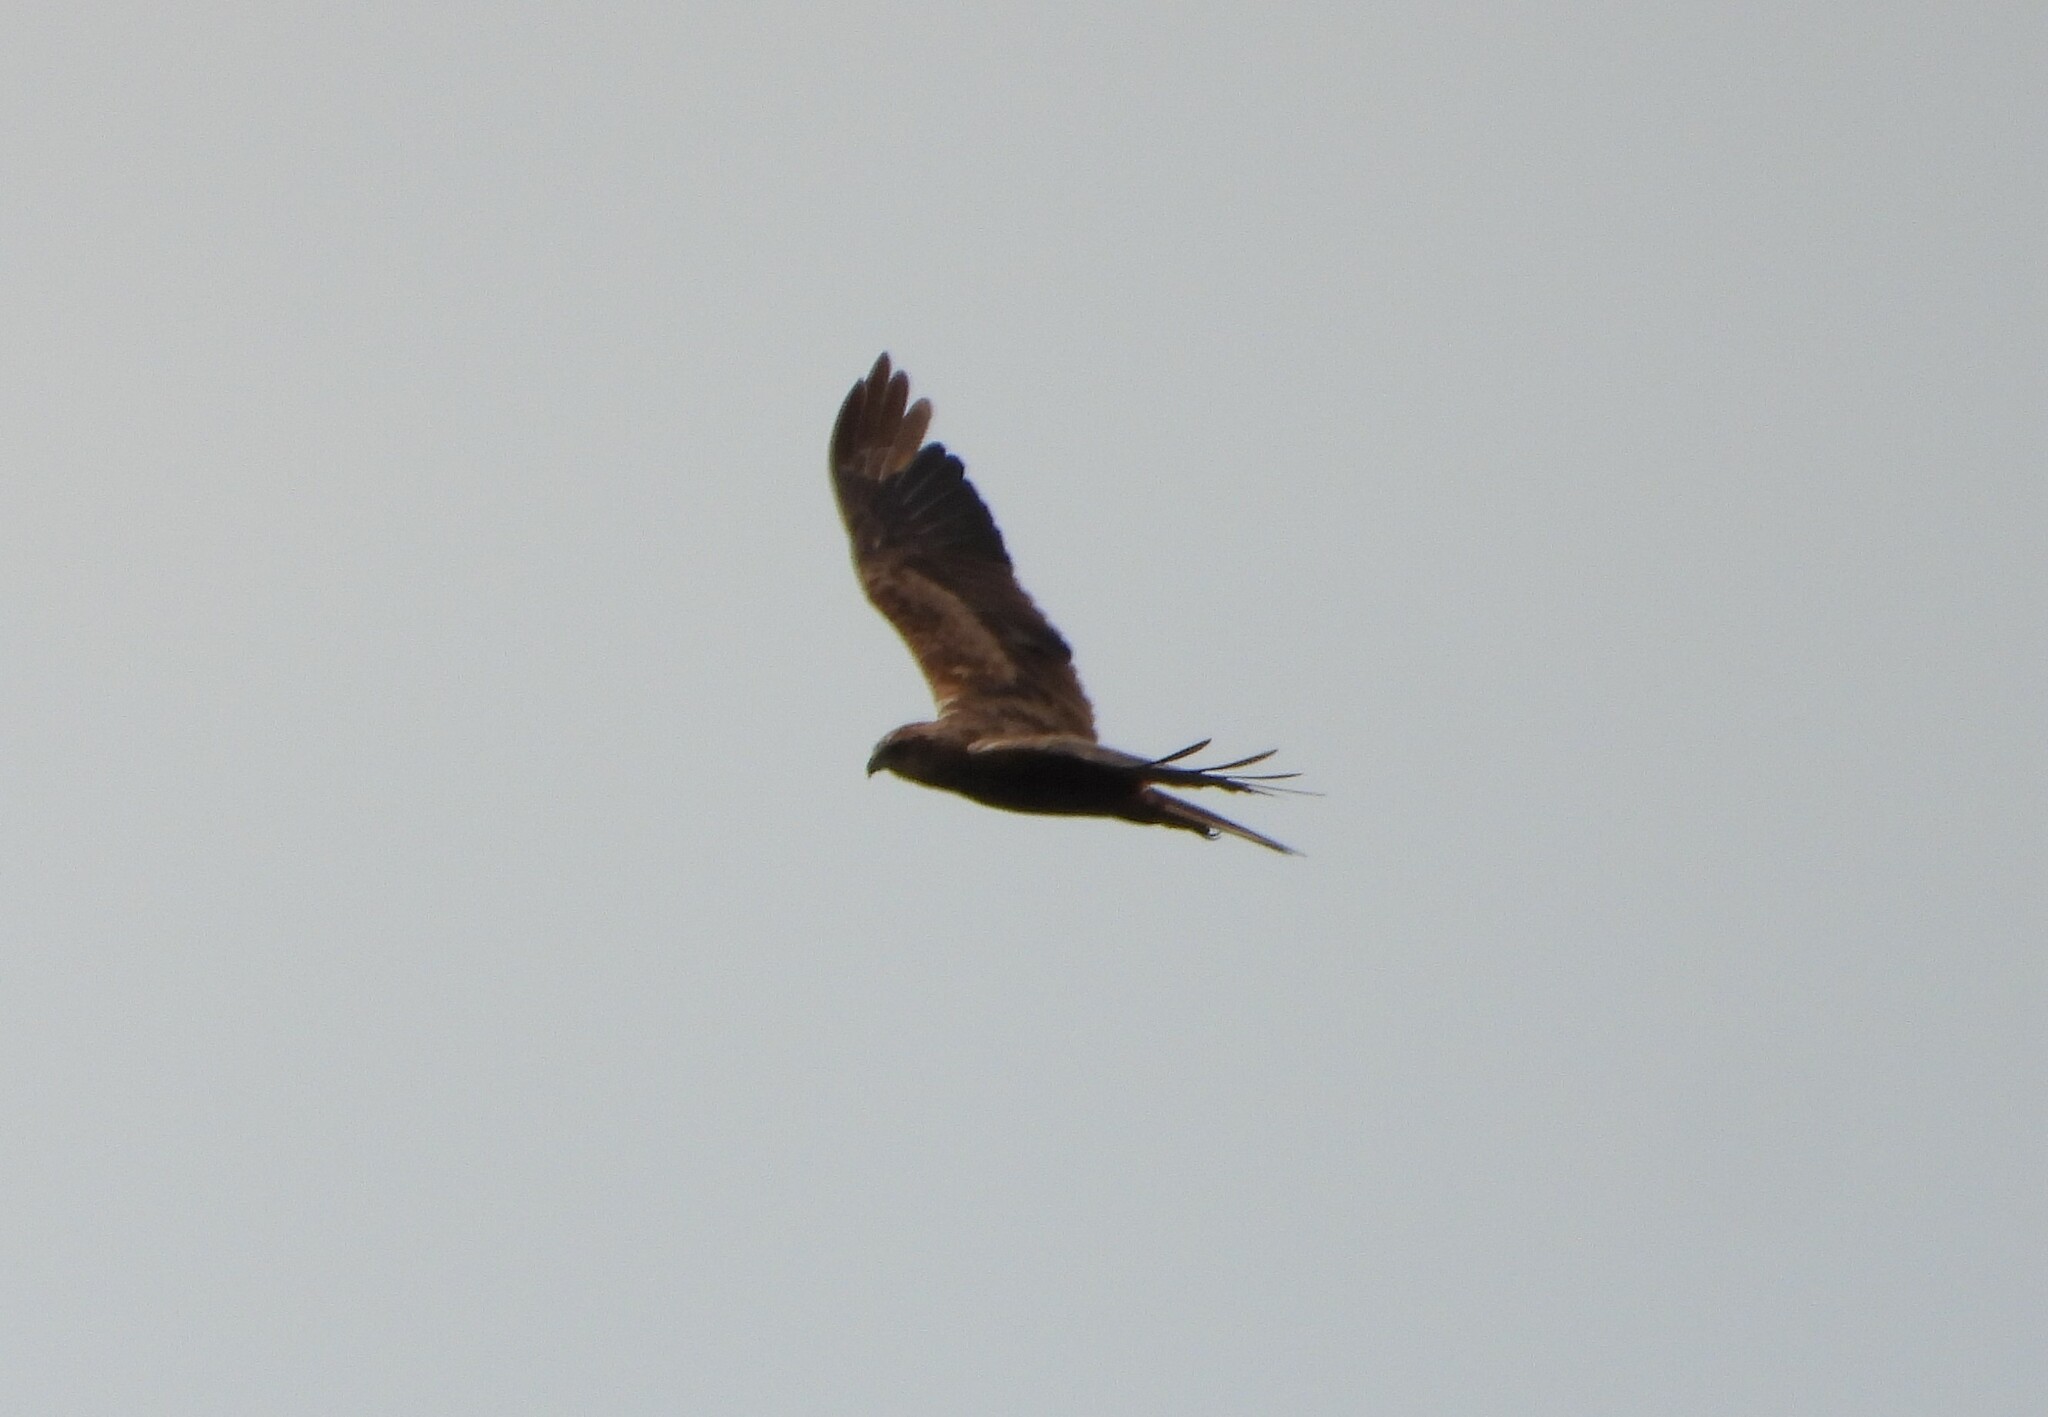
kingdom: Animalia
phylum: Chordata
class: Aves
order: Accipitriformes
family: Accipitridae
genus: Circus
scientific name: Circus aeruginosus
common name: Western marsh harrier
